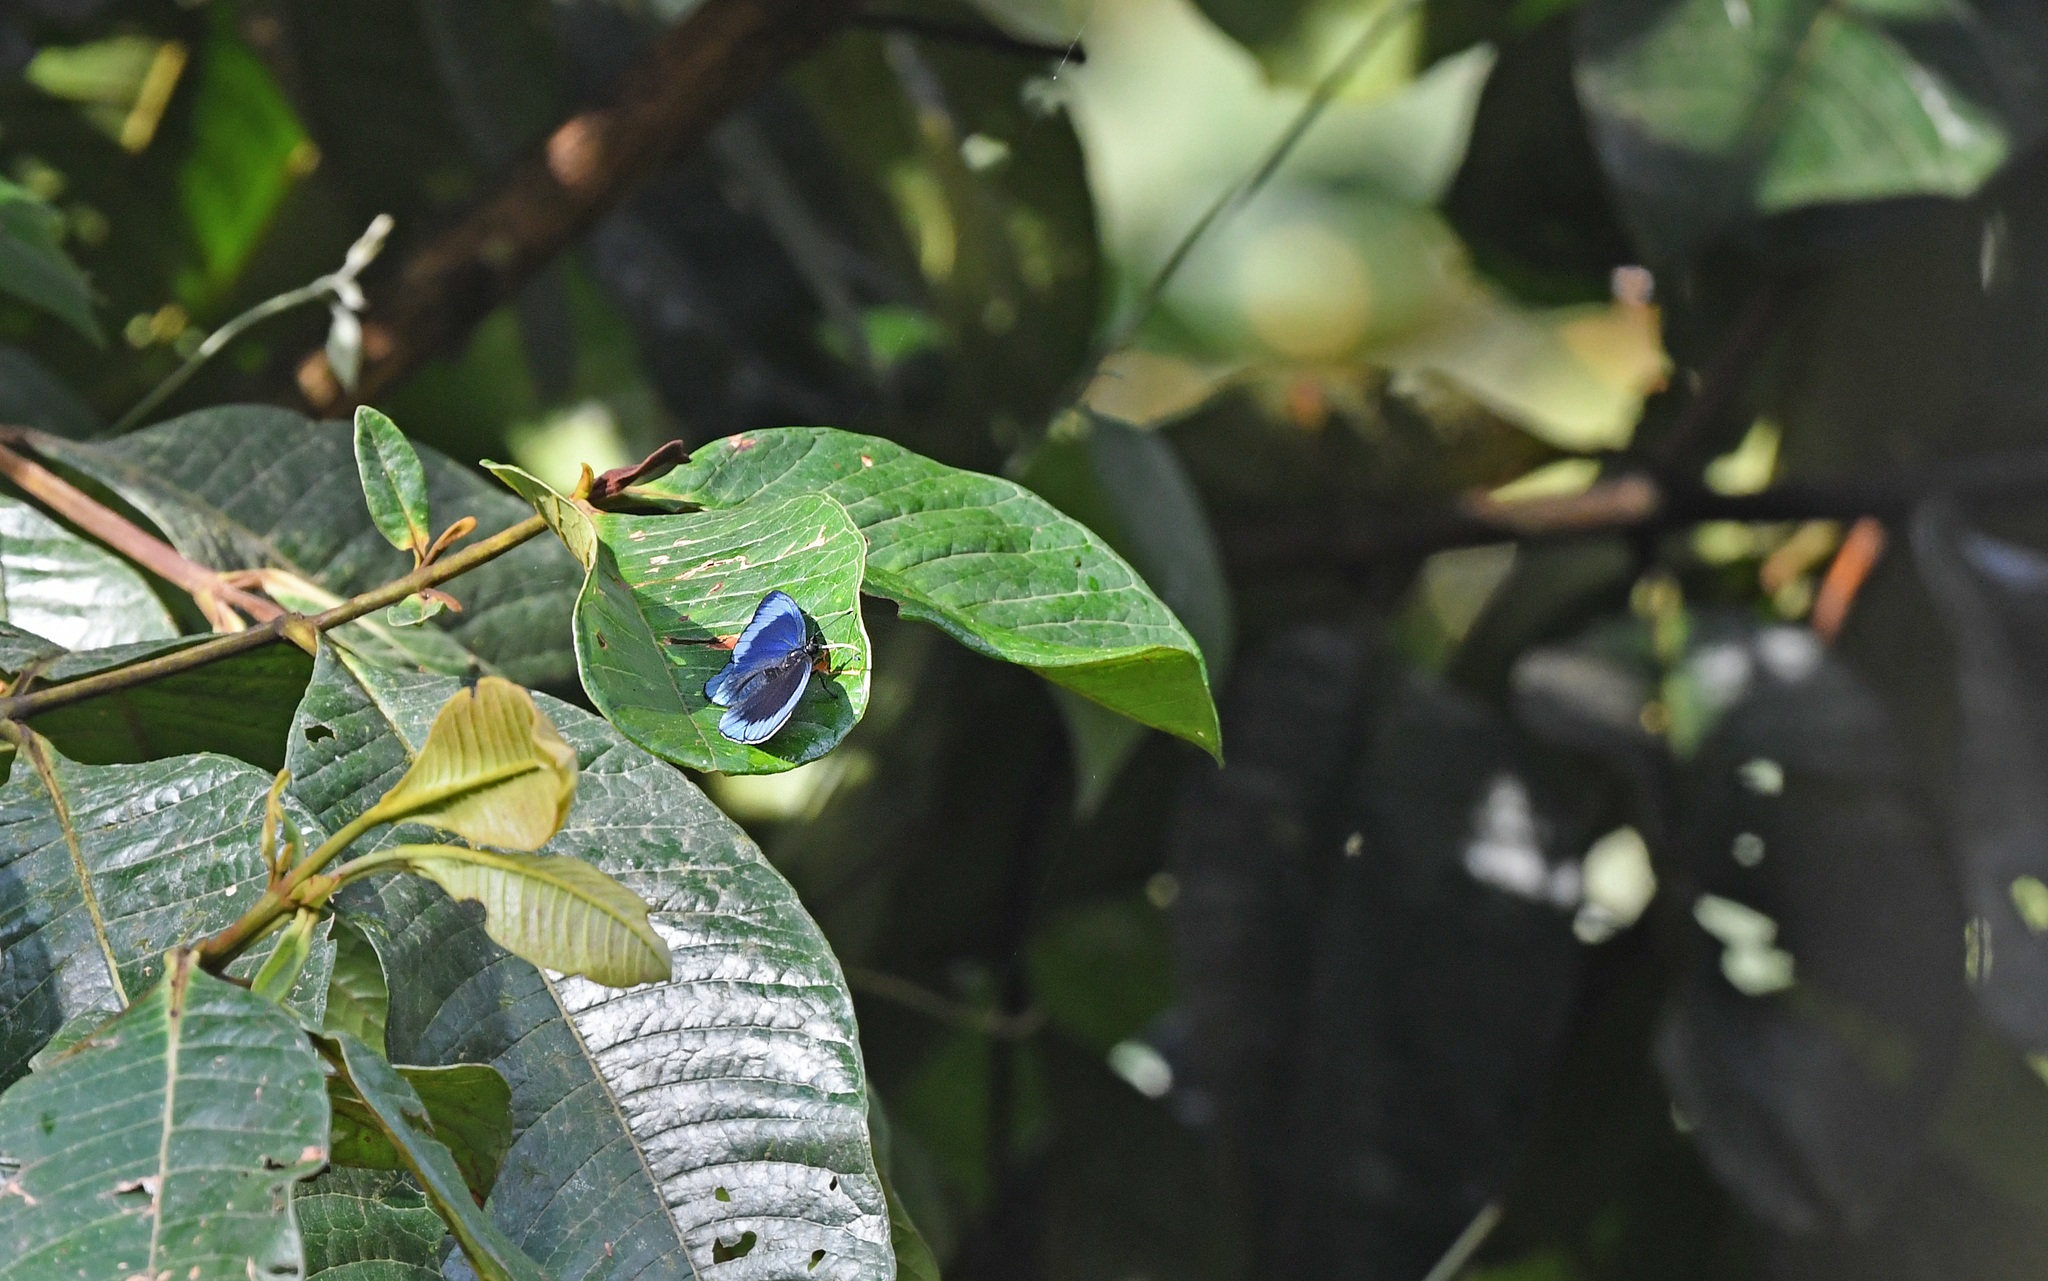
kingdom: Animalia
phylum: Arthropoda
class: Insecta
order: Lepidoptera
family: Nymphalidae
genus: Asterope
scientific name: Asterope leprieuri
